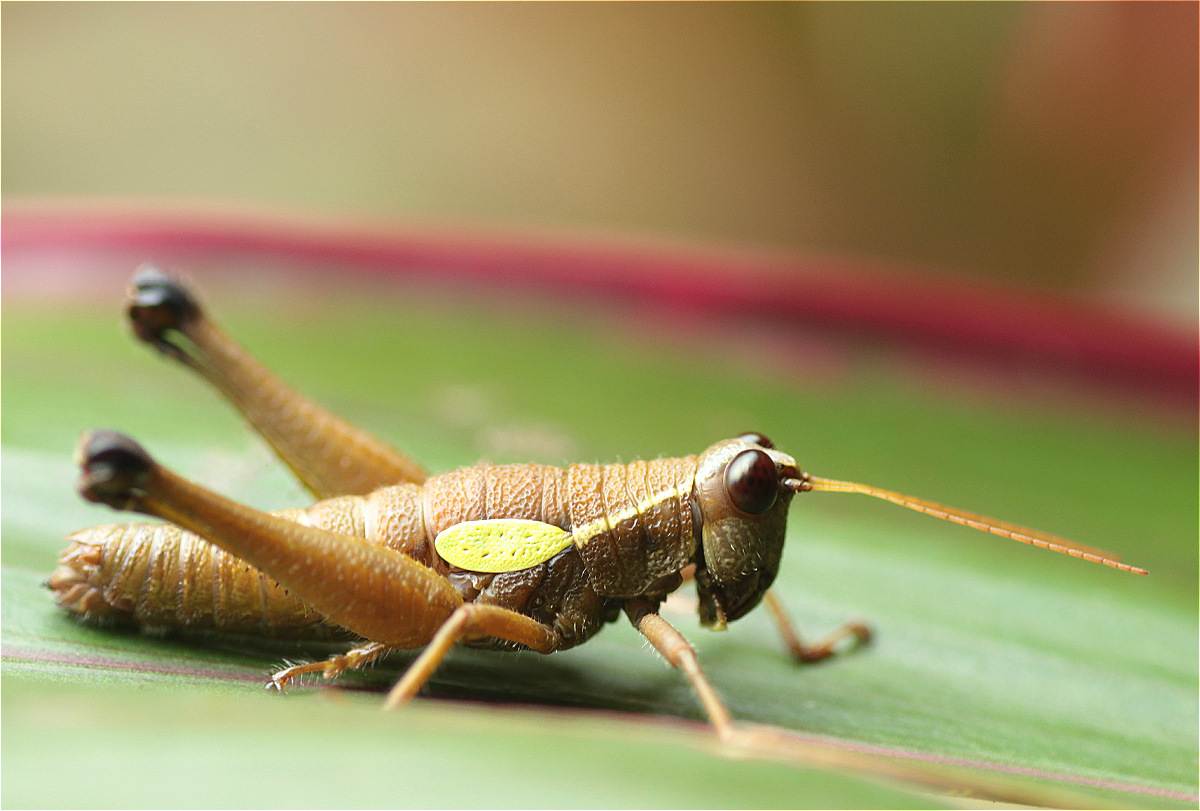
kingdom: Animalia
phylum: Arthropoda
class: Insecta
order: Orthoptera
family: Acrididae
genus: Eulampiacris
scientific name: Eulampiacris leucoptera
